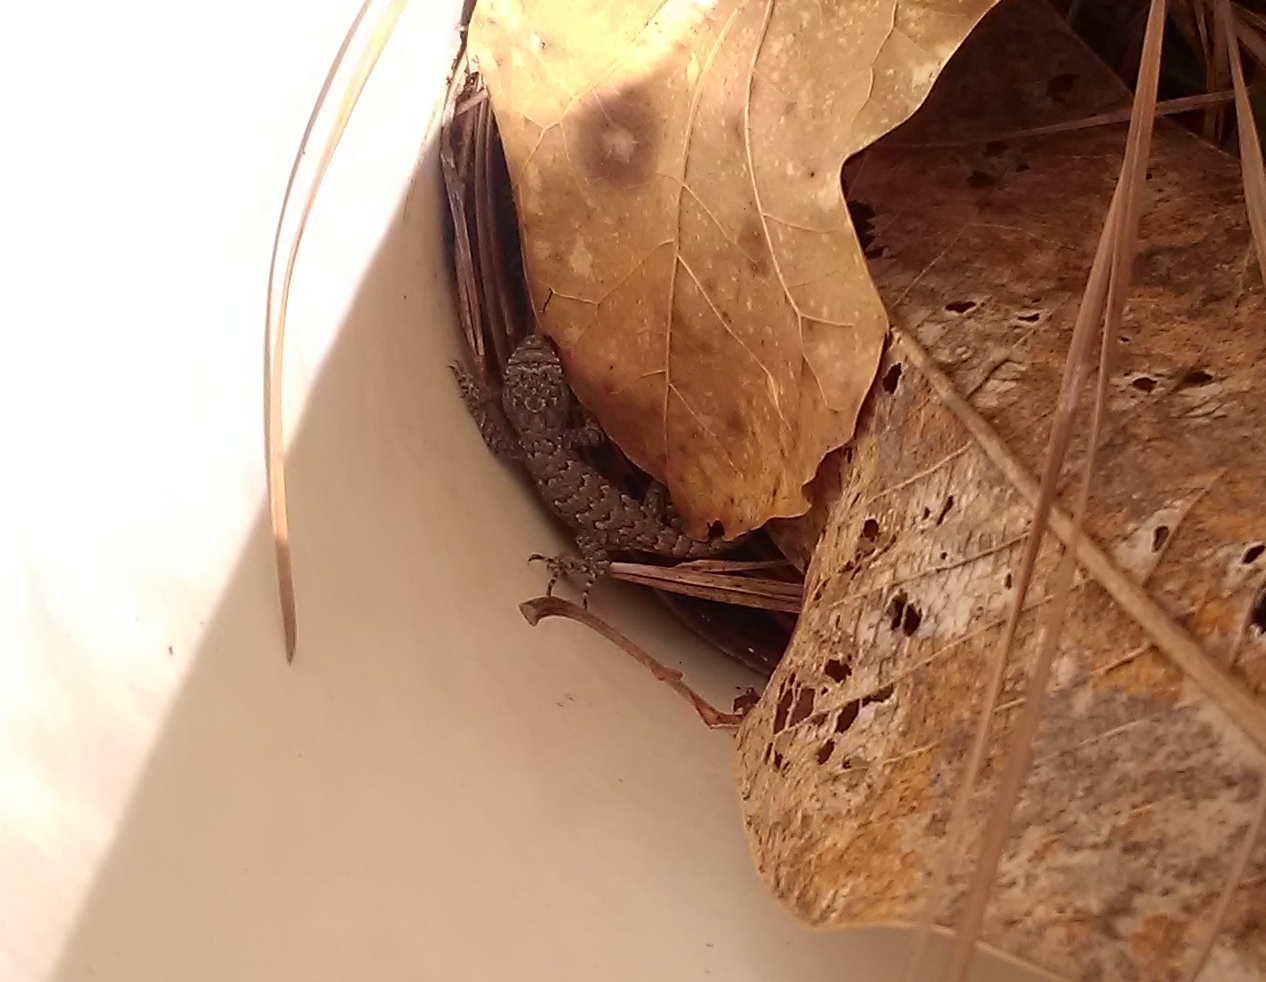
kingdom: Animalia
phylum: Chordata
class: Squamata
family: Phrynosomatidae
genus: Sceloporus
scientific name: Sceloporus undulatus
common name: Eastern fence lizard
